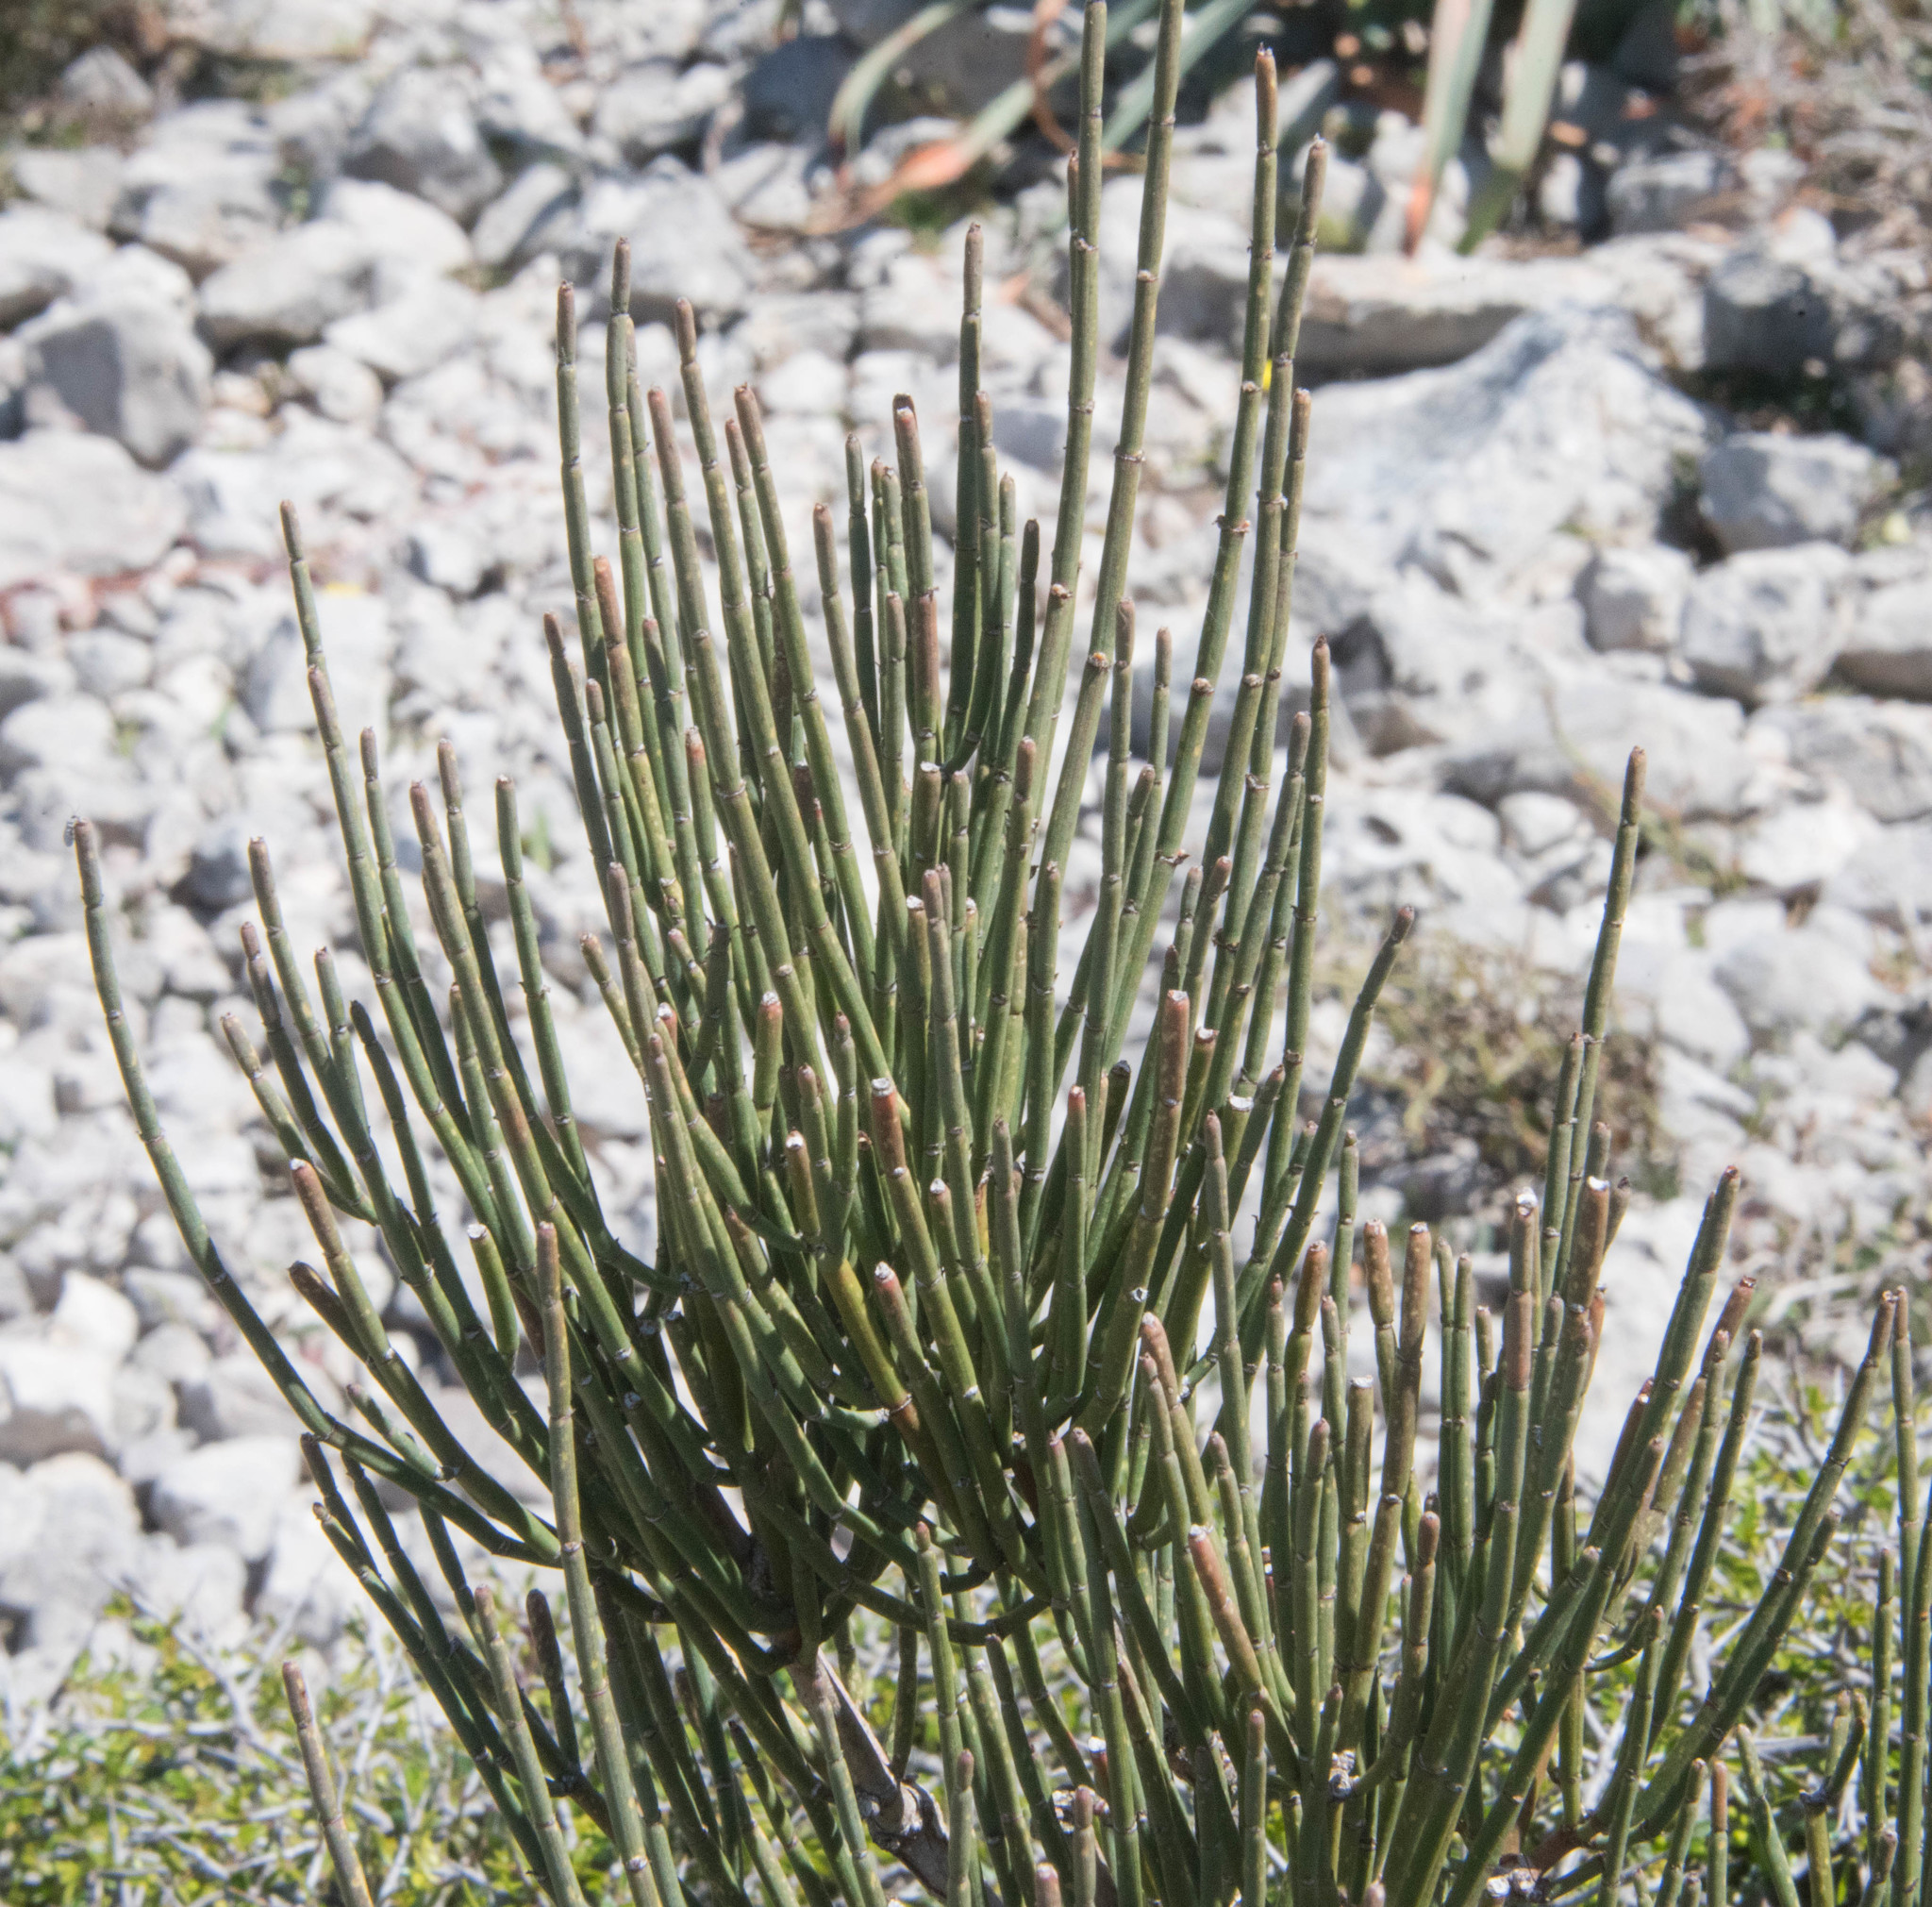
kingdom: Plantae
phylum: Tracheophyta
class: Gnetopsida
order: Ephedrales
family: Ephedraceae
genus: Ephedra
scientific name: Ephedra fragilis
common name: Joint pine
